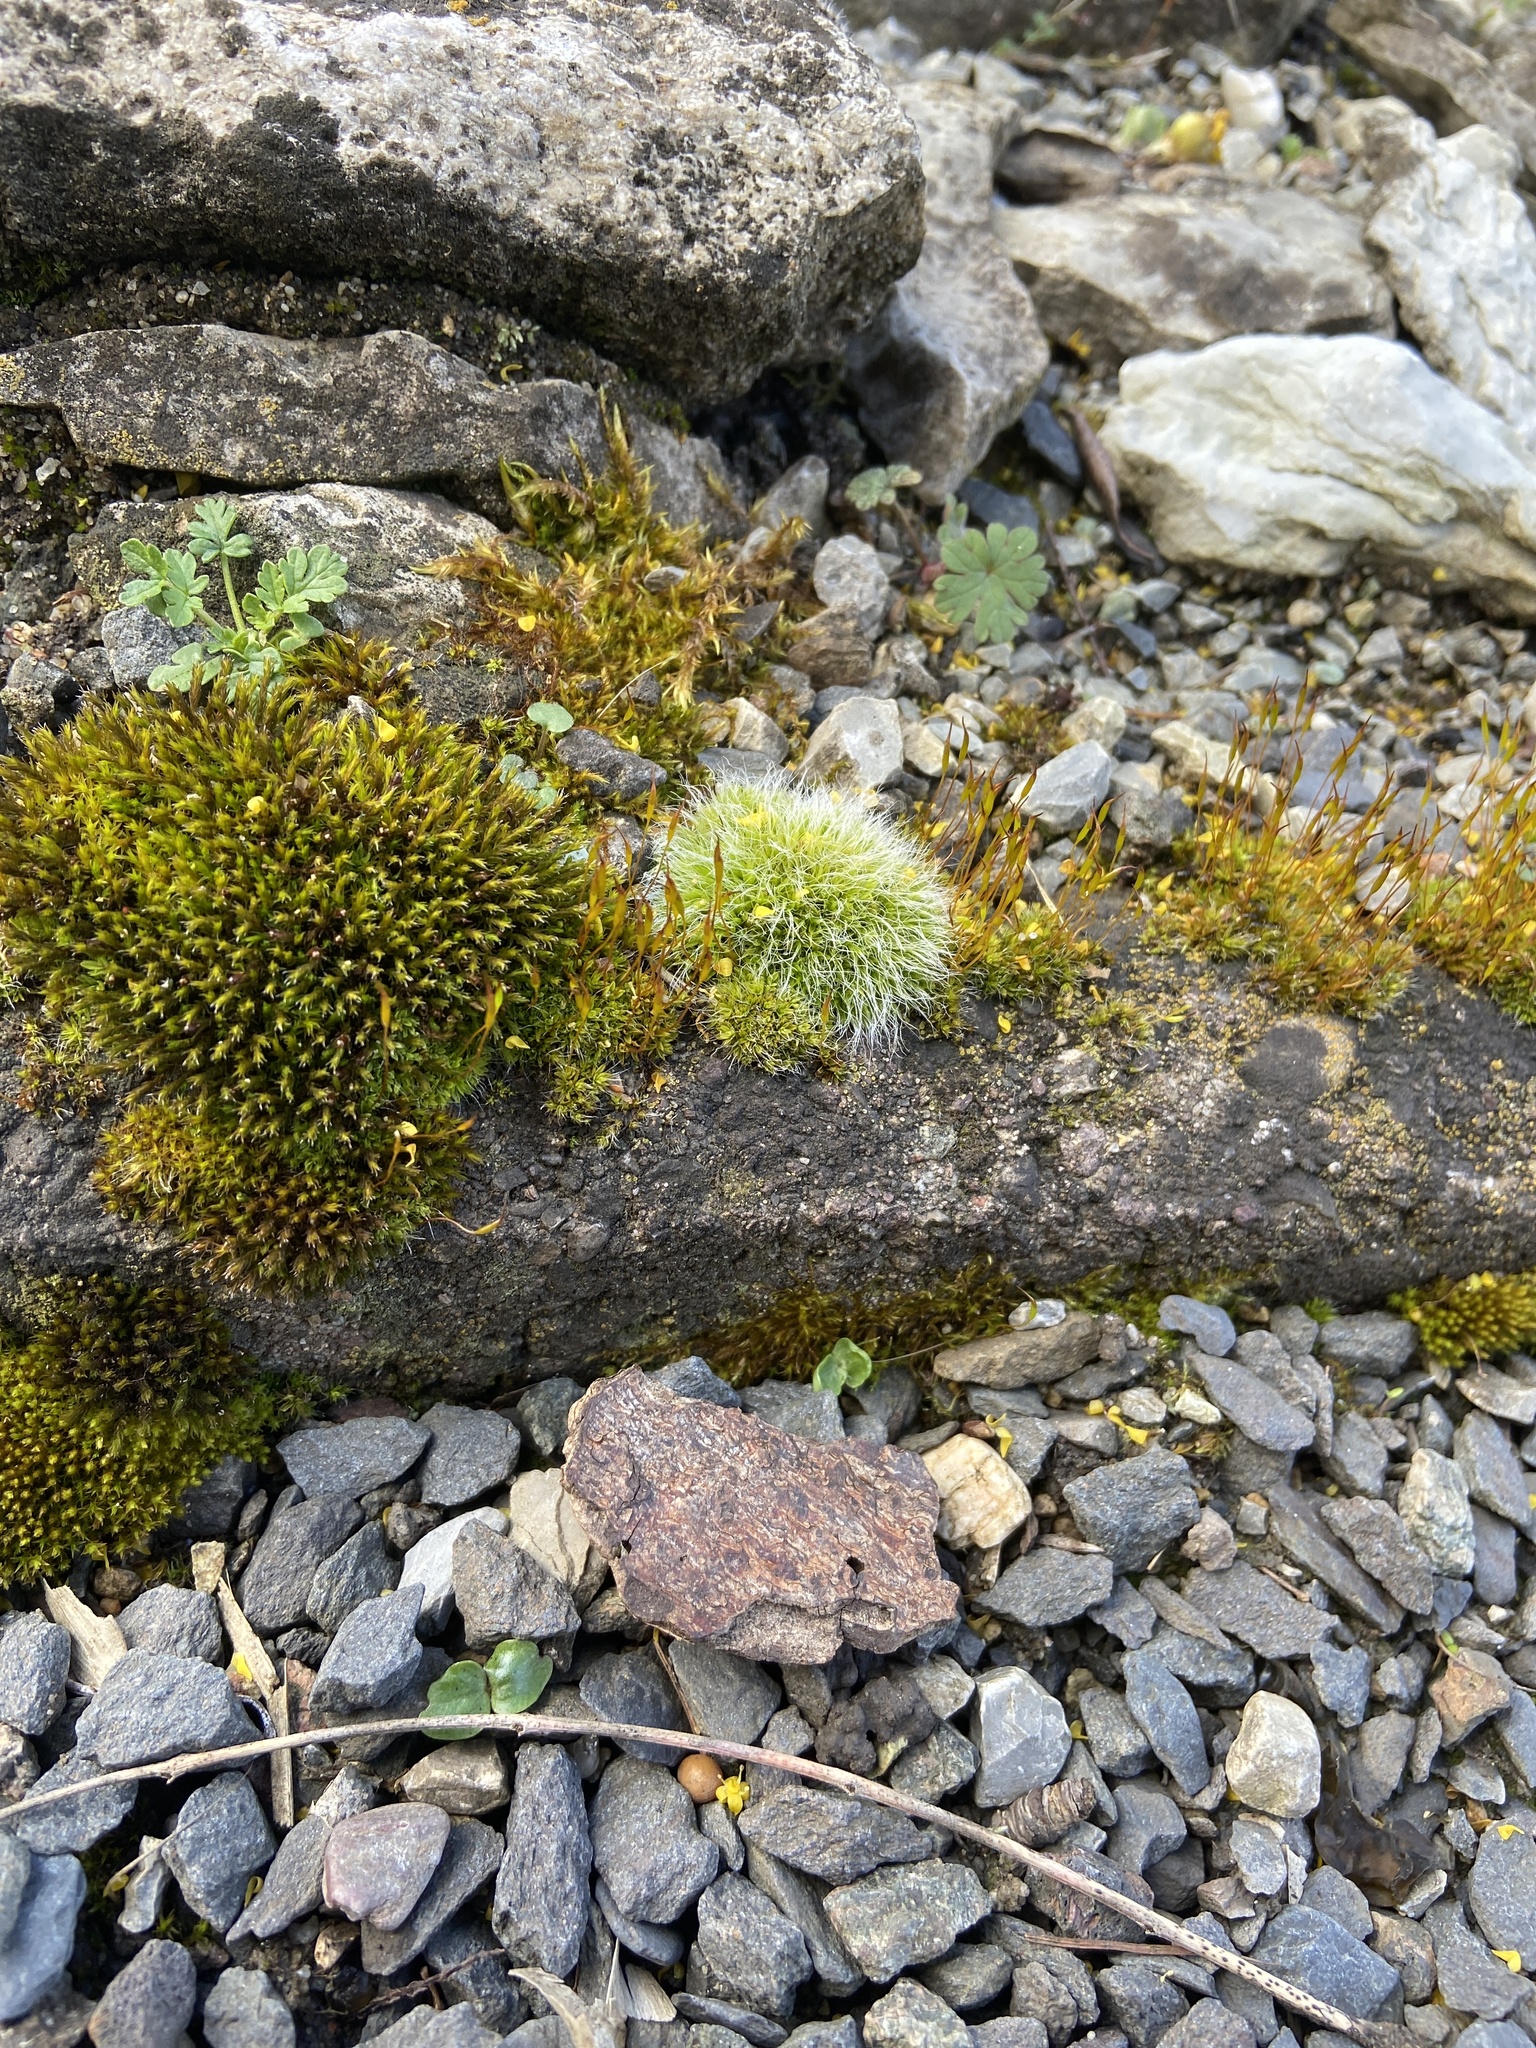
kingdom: Plantae
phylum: Bryophyta
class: Bryopsida
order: Grimmiales
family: Grimmiaceae
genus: Grimmia
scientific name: Grimmia pulvinata
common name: Grey-cushioned grimmia
